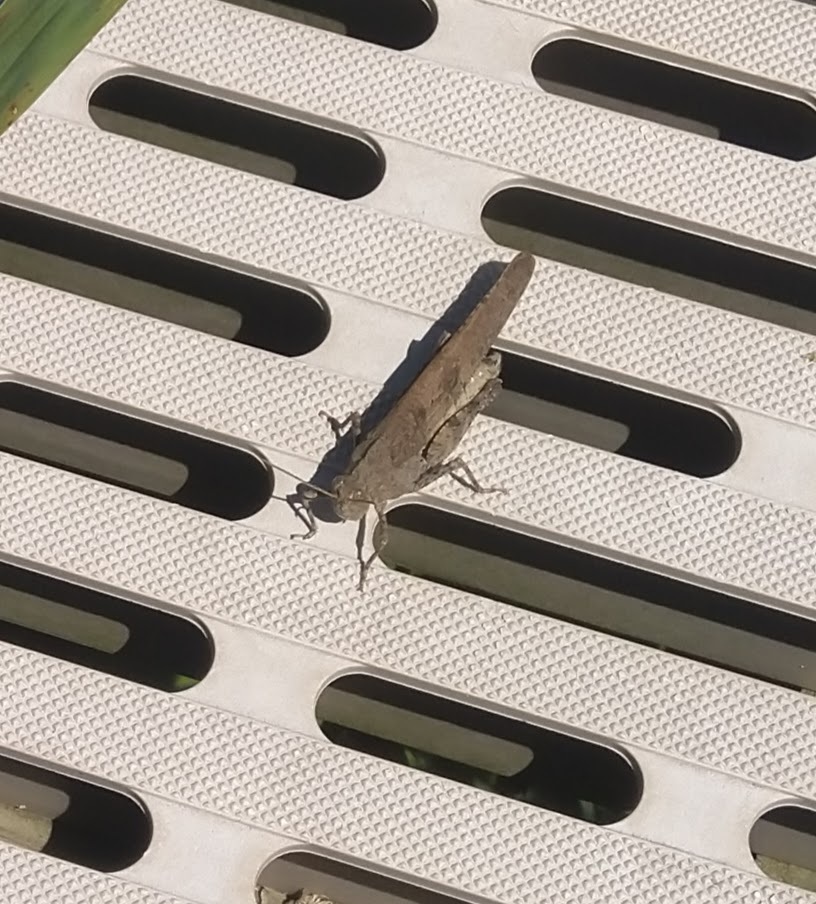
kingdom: Animalia
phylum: Arthropoda
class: Insecta
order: Orthoptera
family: Acrididae
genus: Dissosteira
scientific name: Dissosteira carolina
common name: Carolina grasshopper
